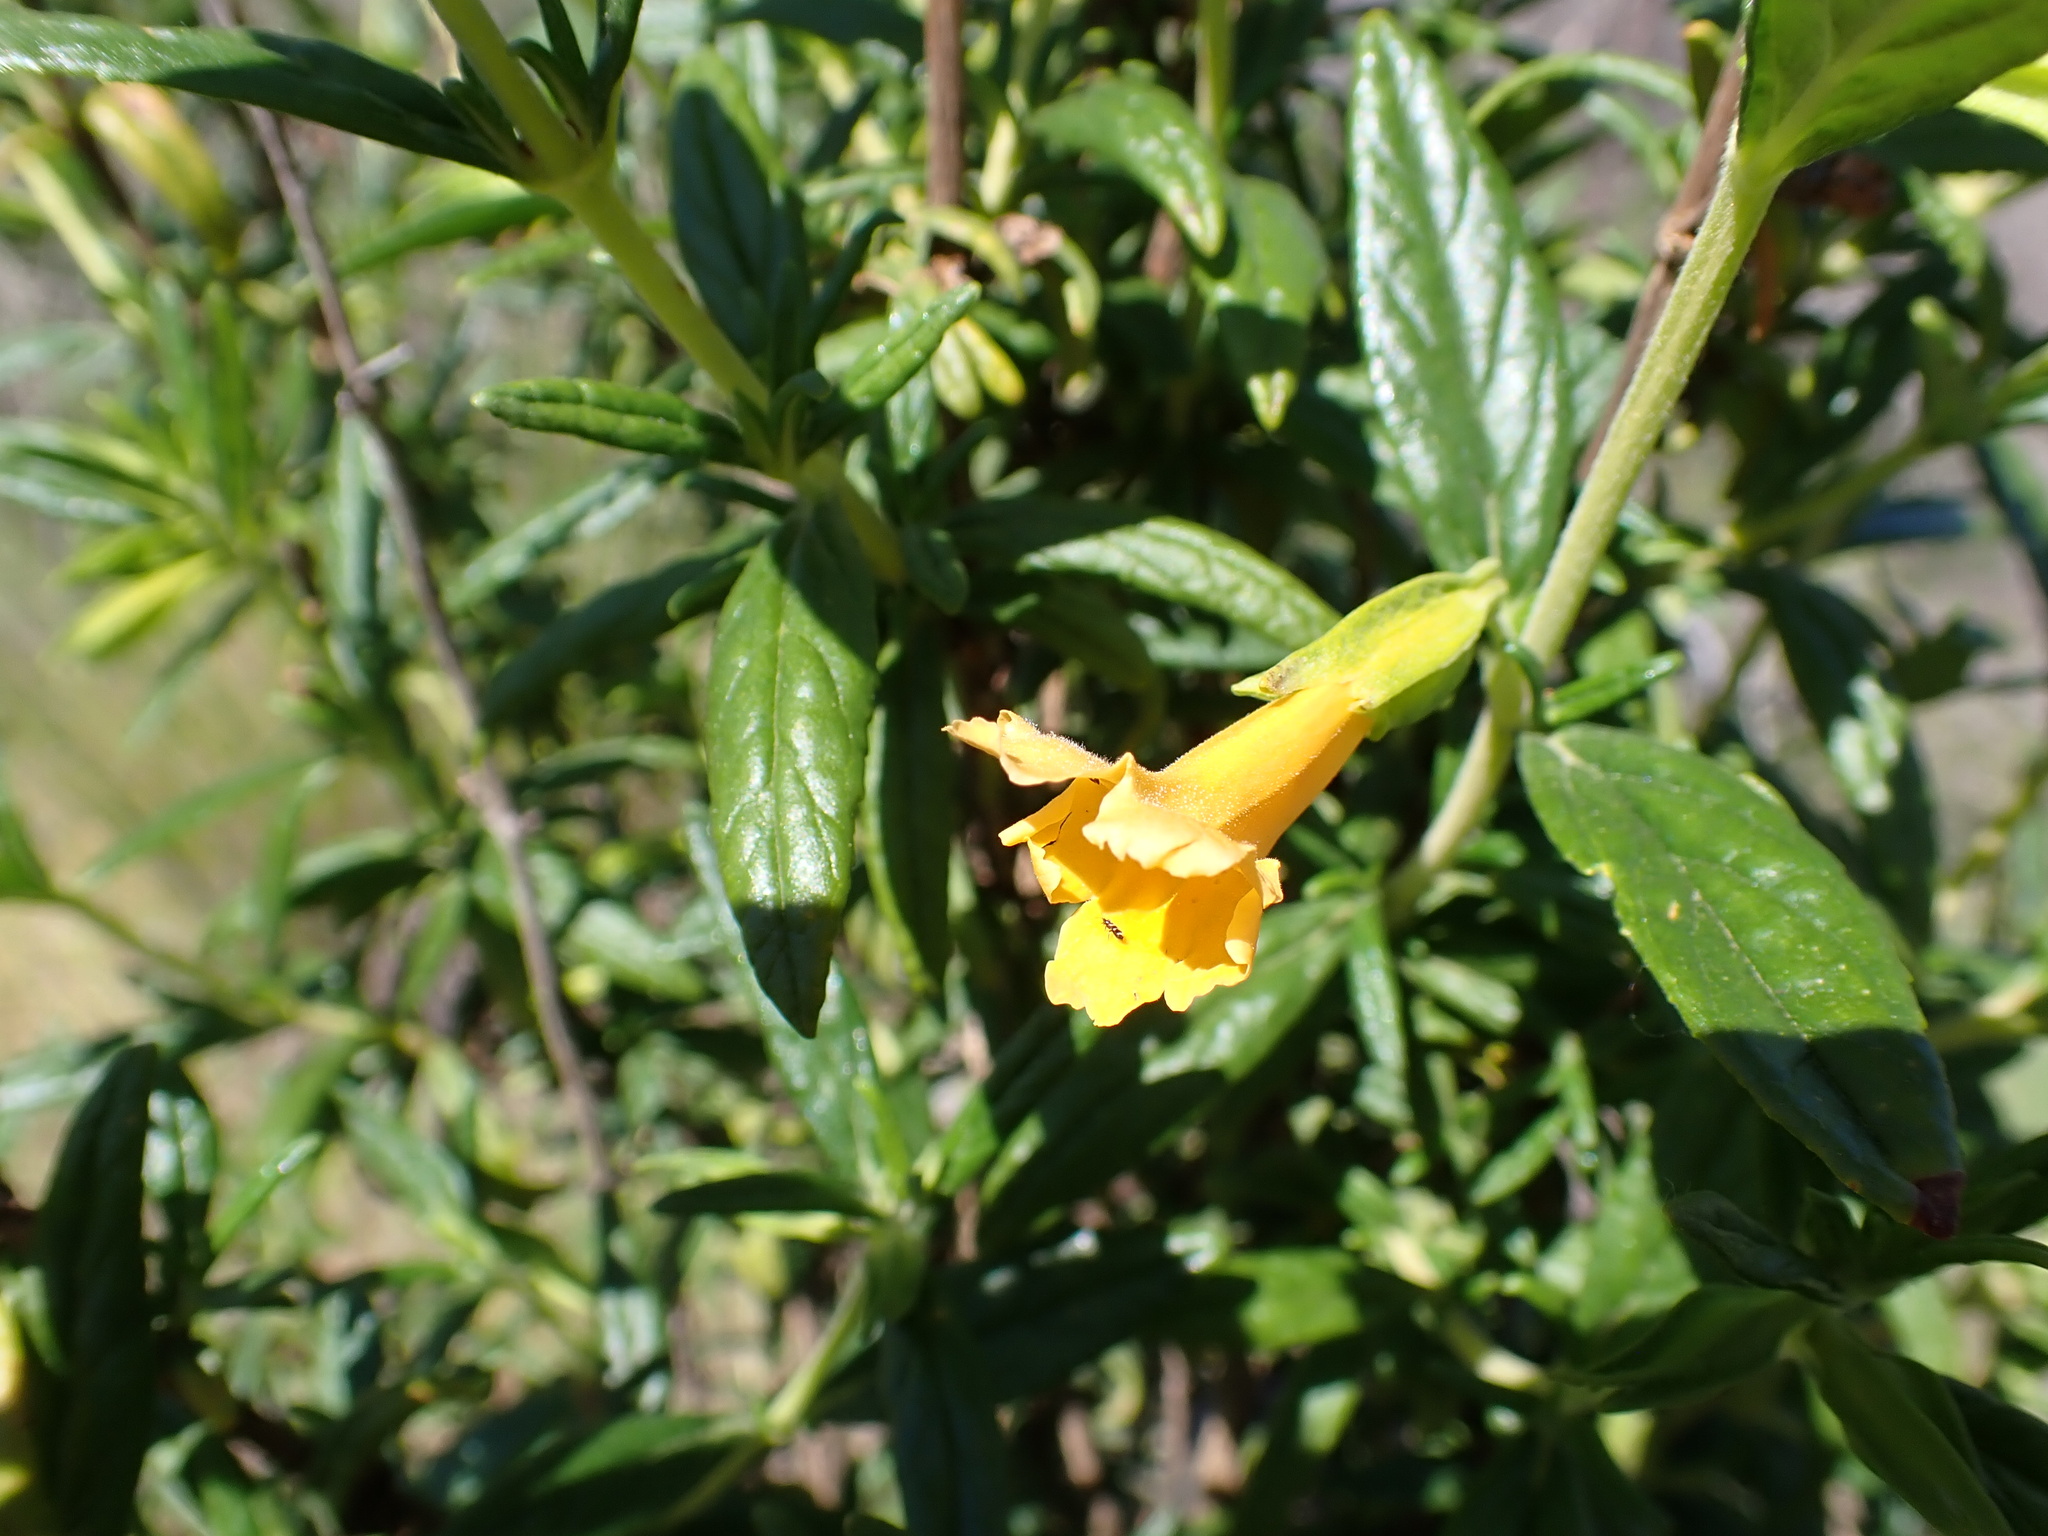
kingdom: Plantae
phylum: Tracheophyta
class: Magnoliopsida
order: Lamiales
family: Phrymaceae
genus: Diplacus
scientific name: Diplacus aurantiacus
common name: Bush monkey-flower
